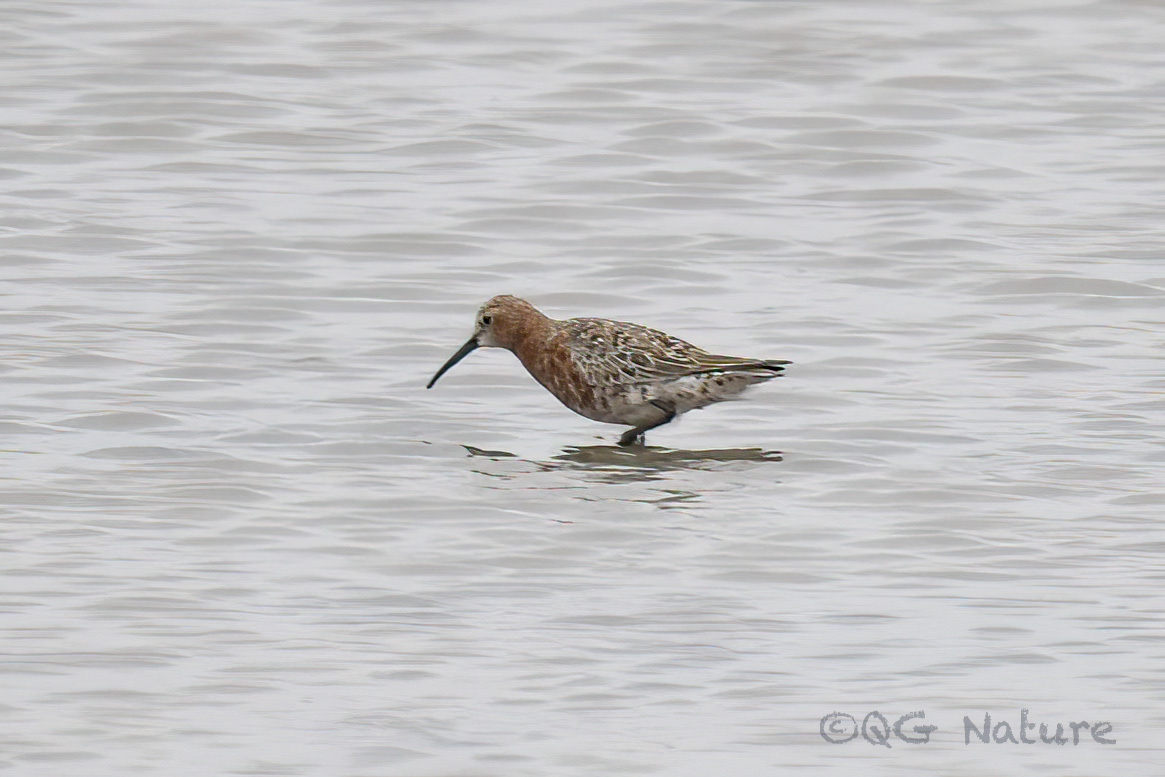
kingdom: Animalia
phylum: Chordata
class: Aves
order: Charadriiformes
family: Scolopacidae
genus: Calidris
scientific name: Calidris ferruginea
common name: Curlew sandpiper
